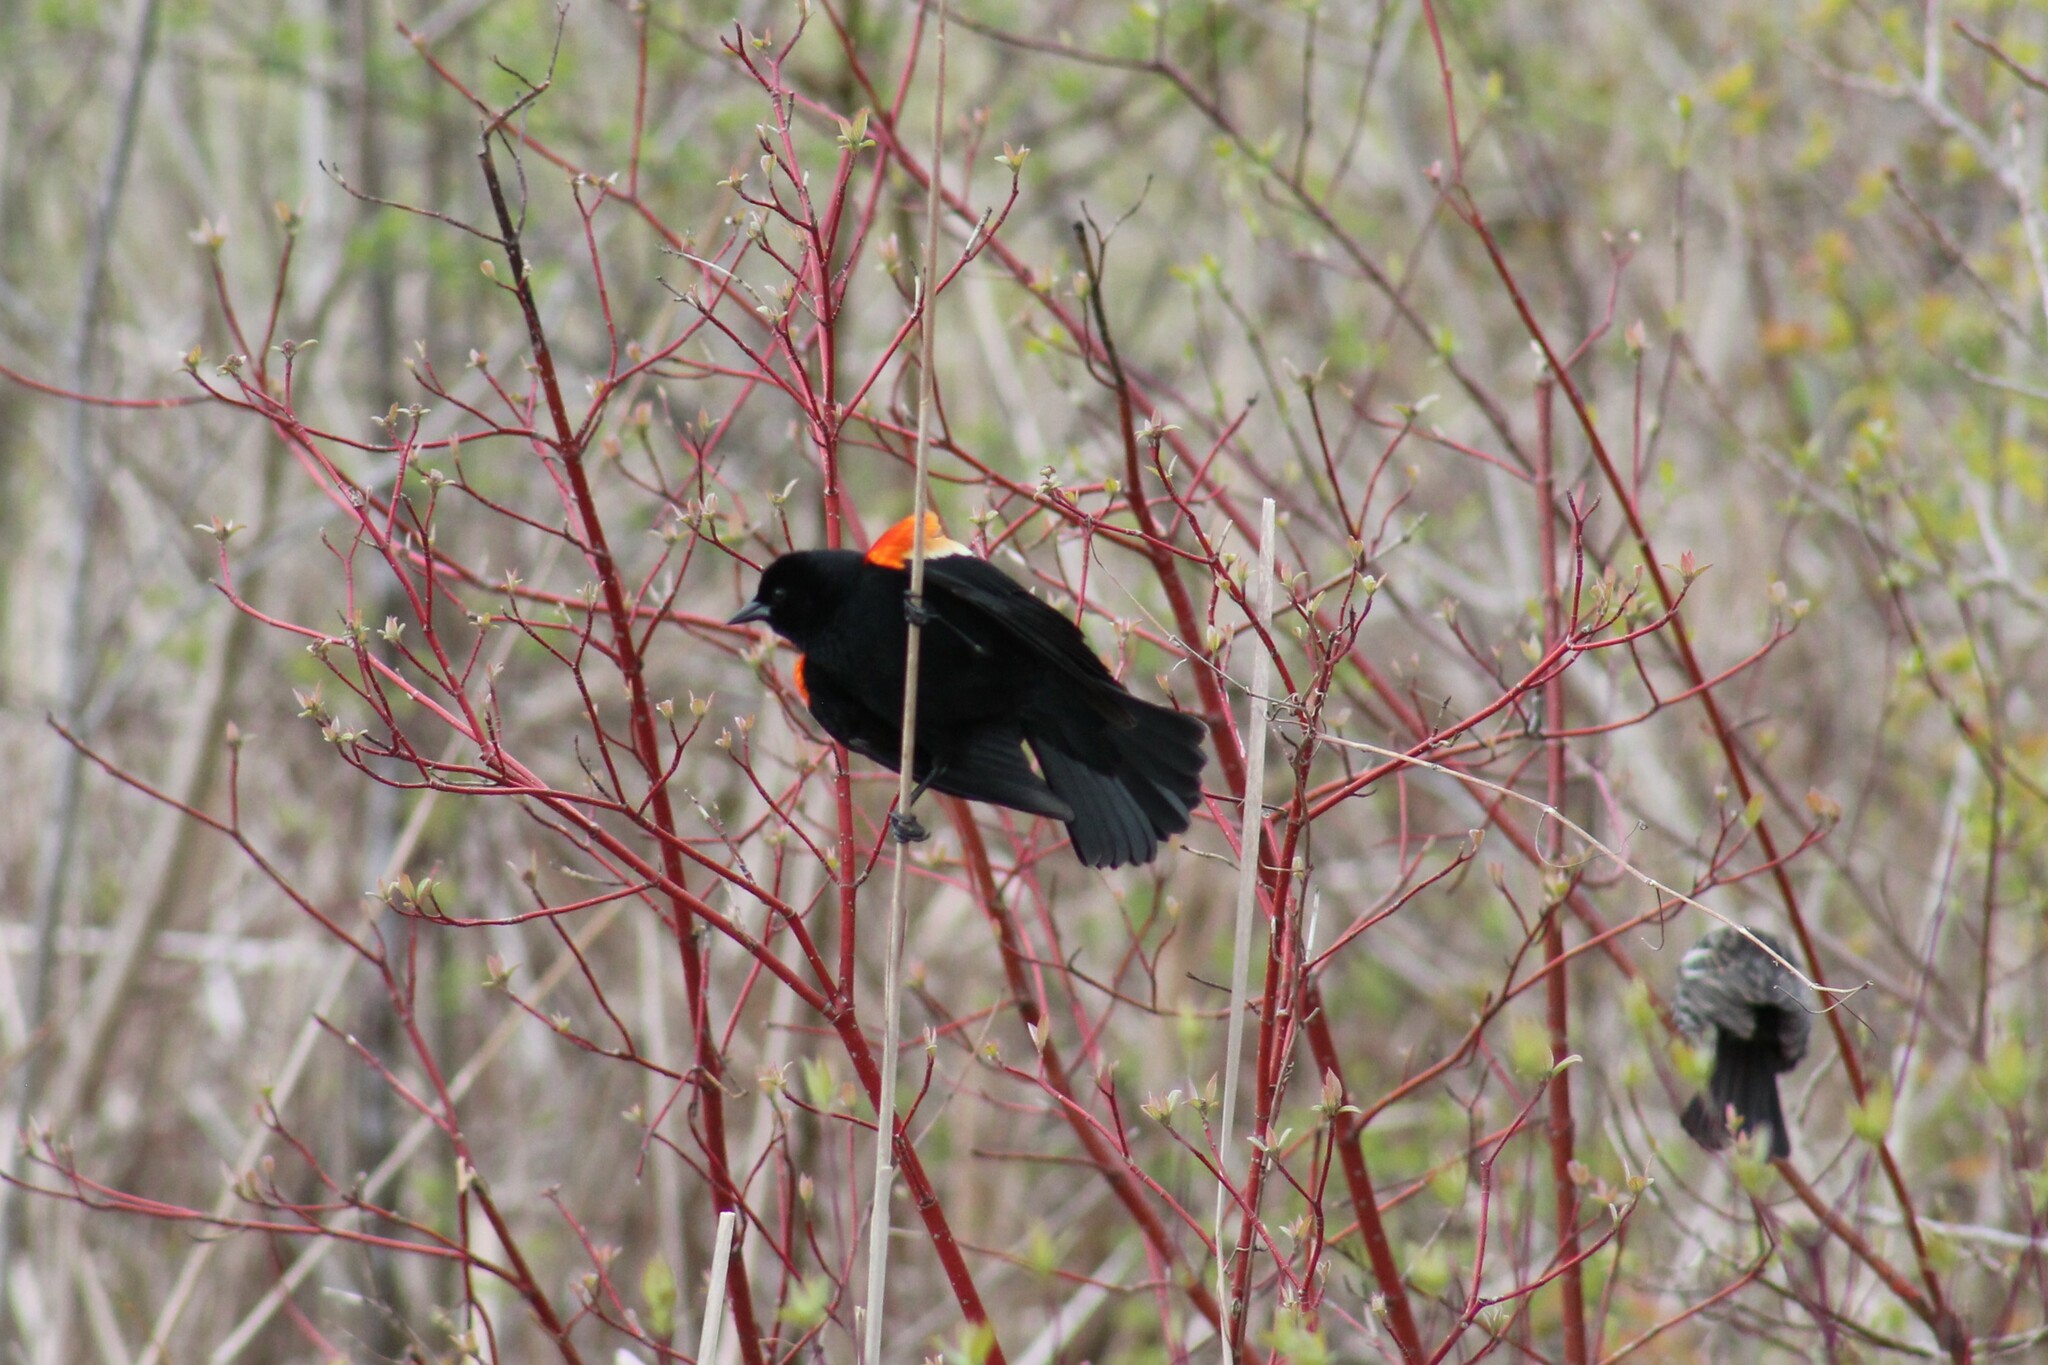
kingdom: Animalia
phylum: Chordata
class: Aves
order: Passeriformes
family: Icteridae
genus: Agelaius
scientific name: Agelaius phoeniceus
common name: Red-winged blackbird
